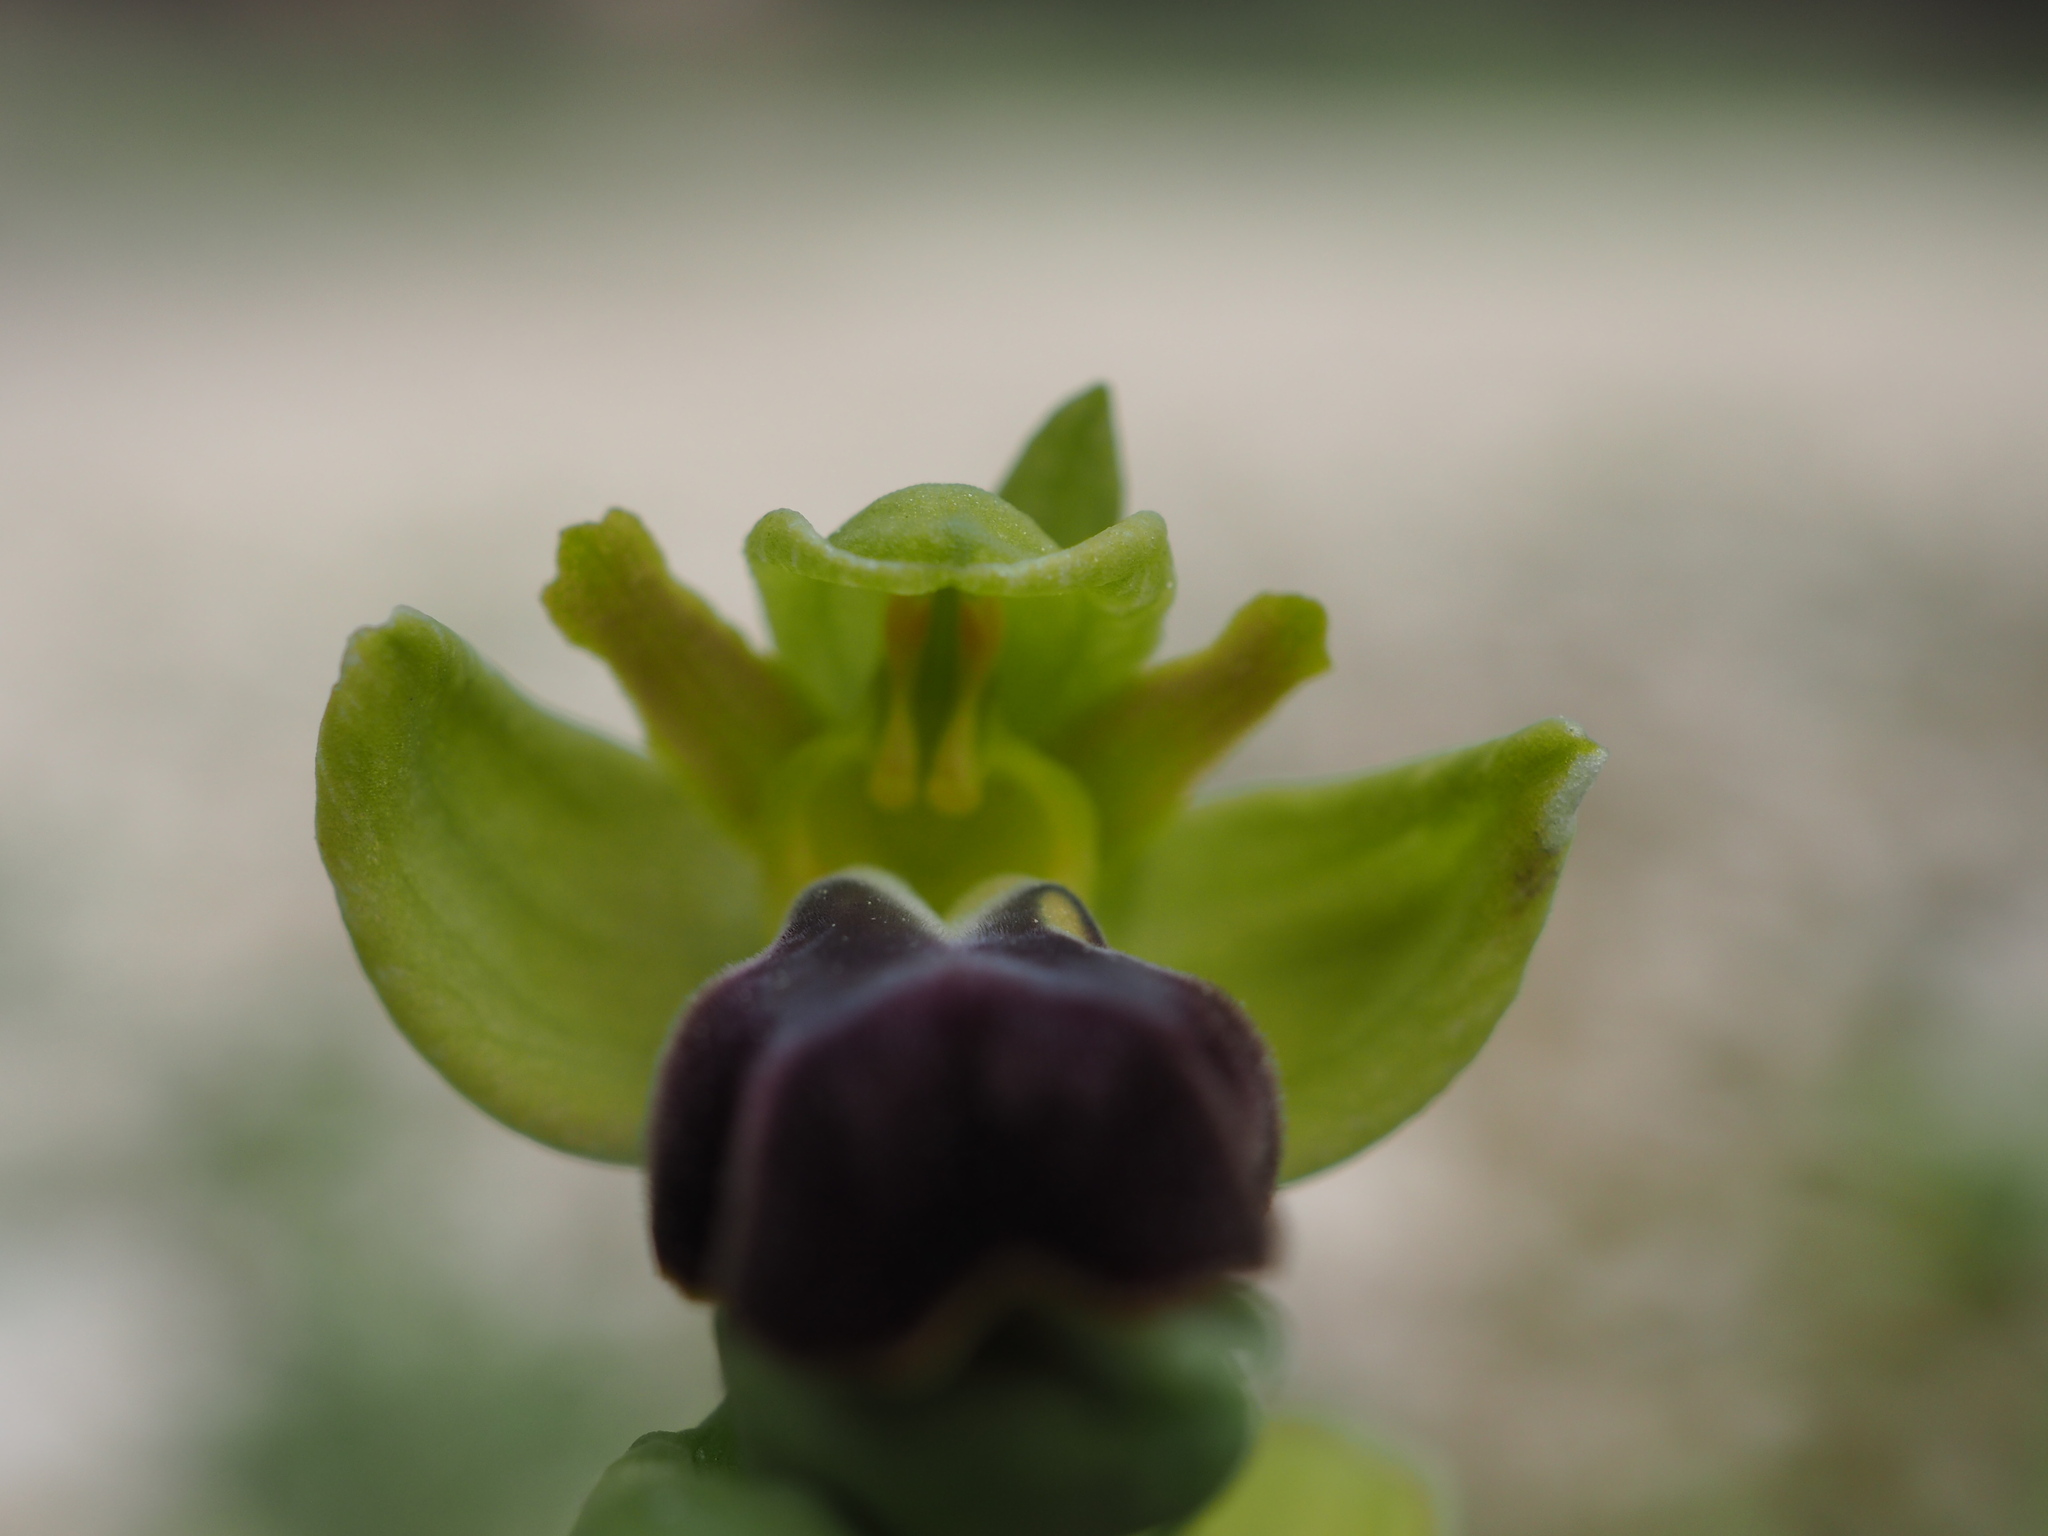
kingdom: Plantae
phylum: Tracheophyta
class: Liliopsida
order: Asparagales
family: Orchidaceae
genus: Ophrys
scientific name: Ophrys fusca
